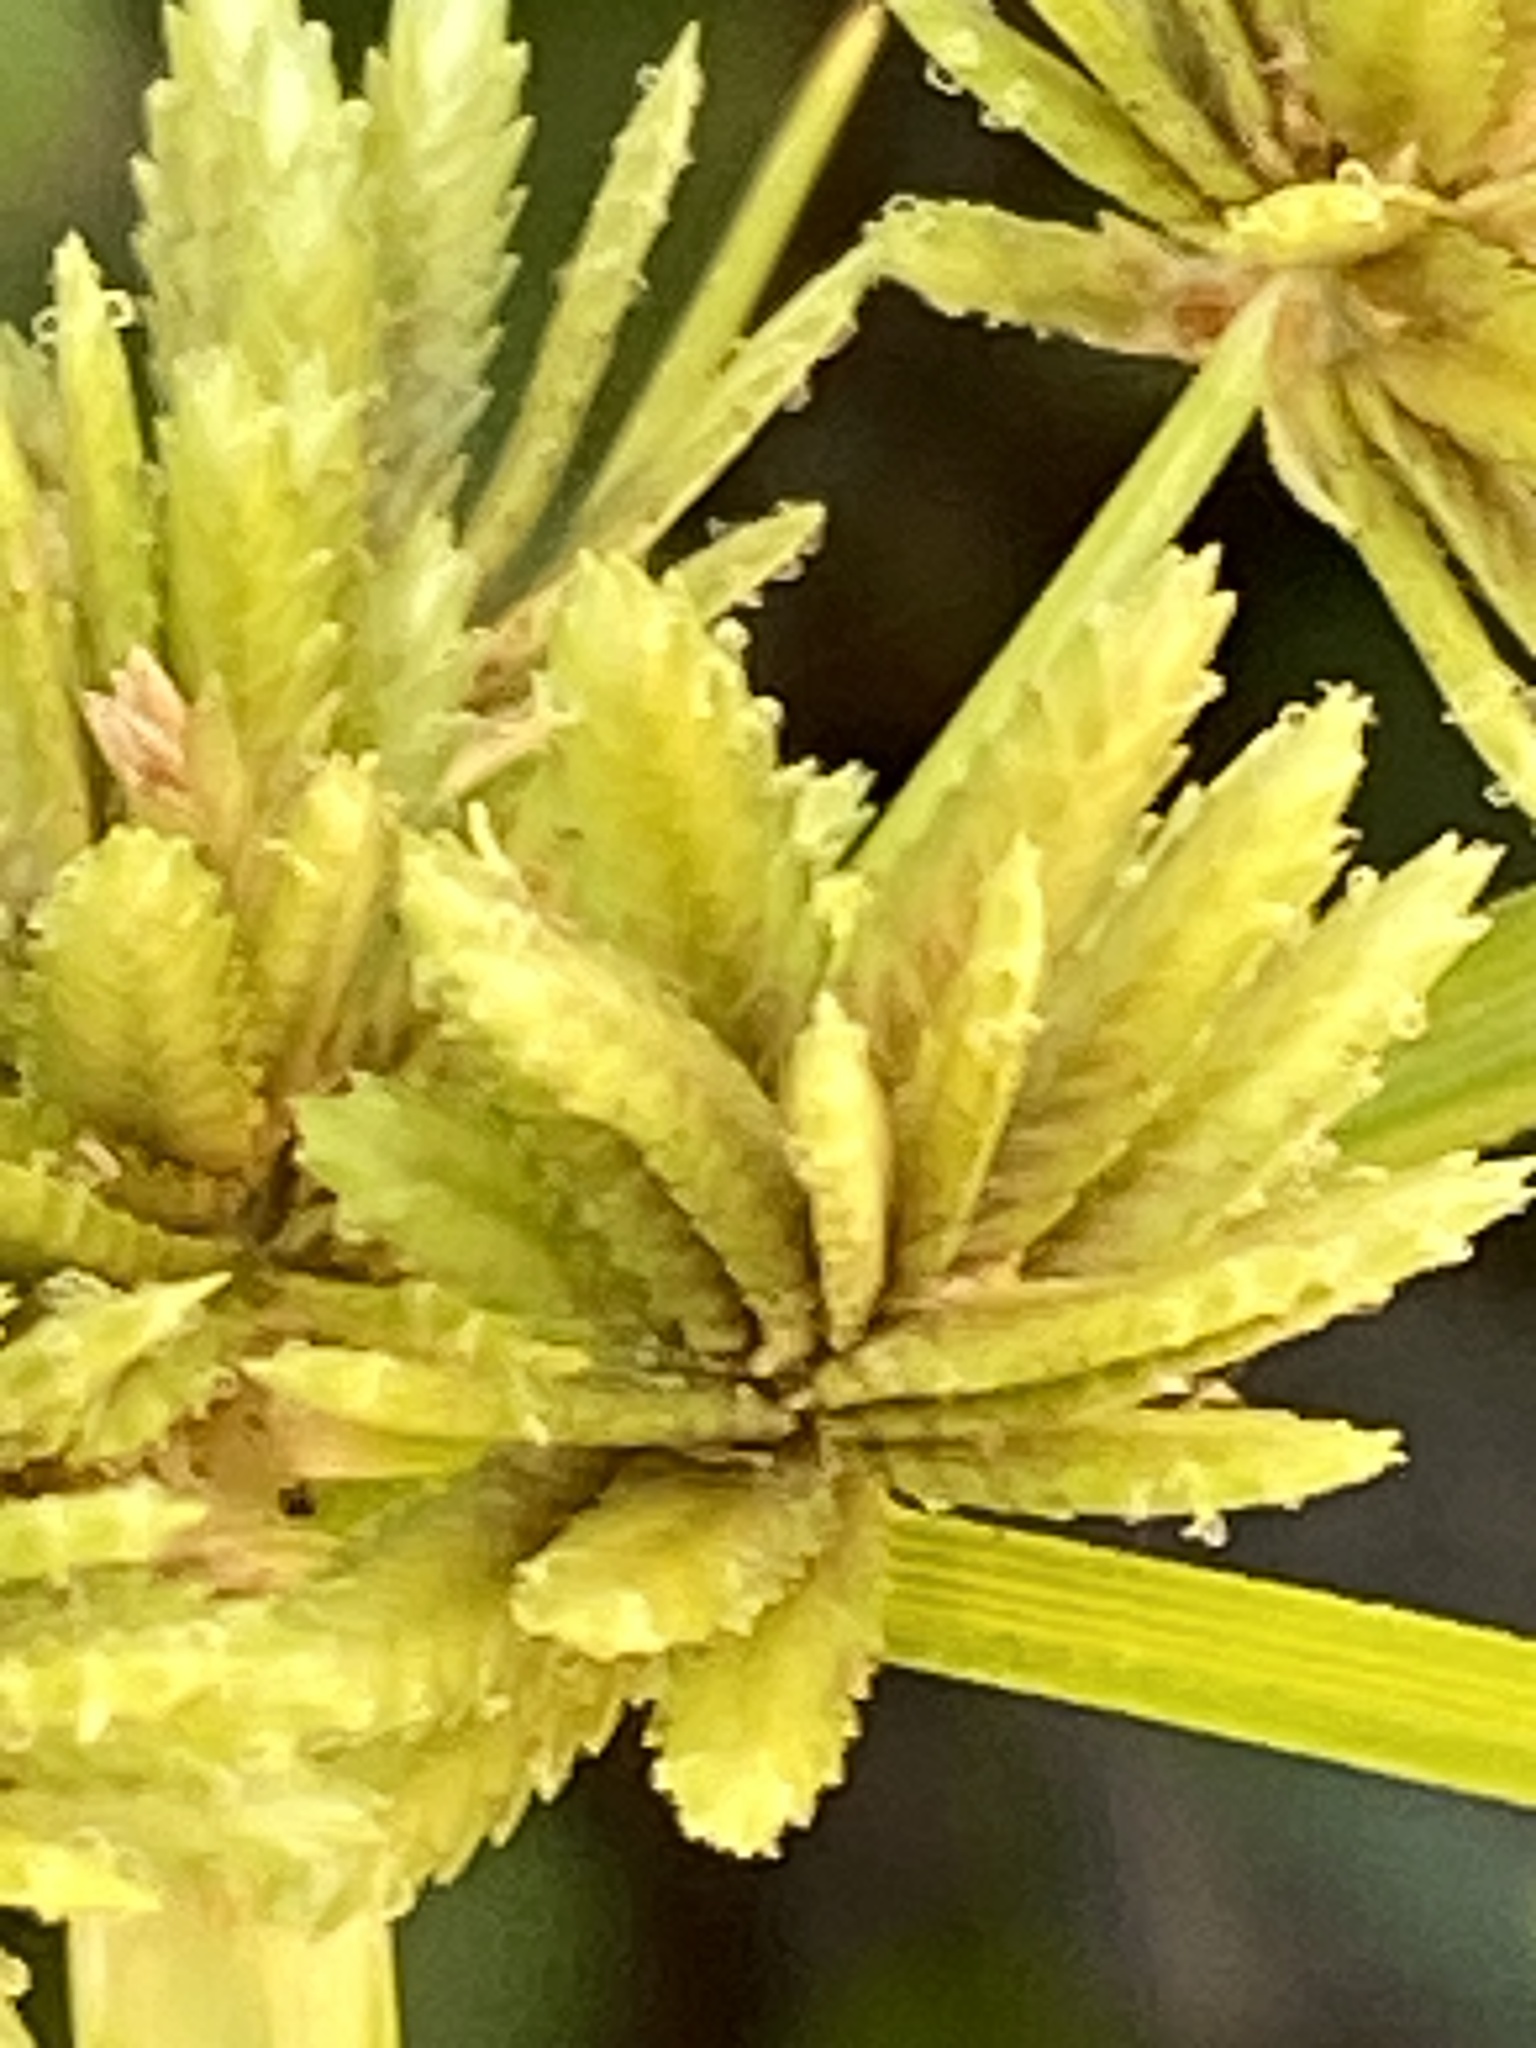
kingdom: Plantae
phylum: Tracheophyta
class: Liliopsida
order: Poales
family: Cyperaceae
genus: Cyperus
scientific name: Cyperus eragrostis
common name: Tall flatsedge
